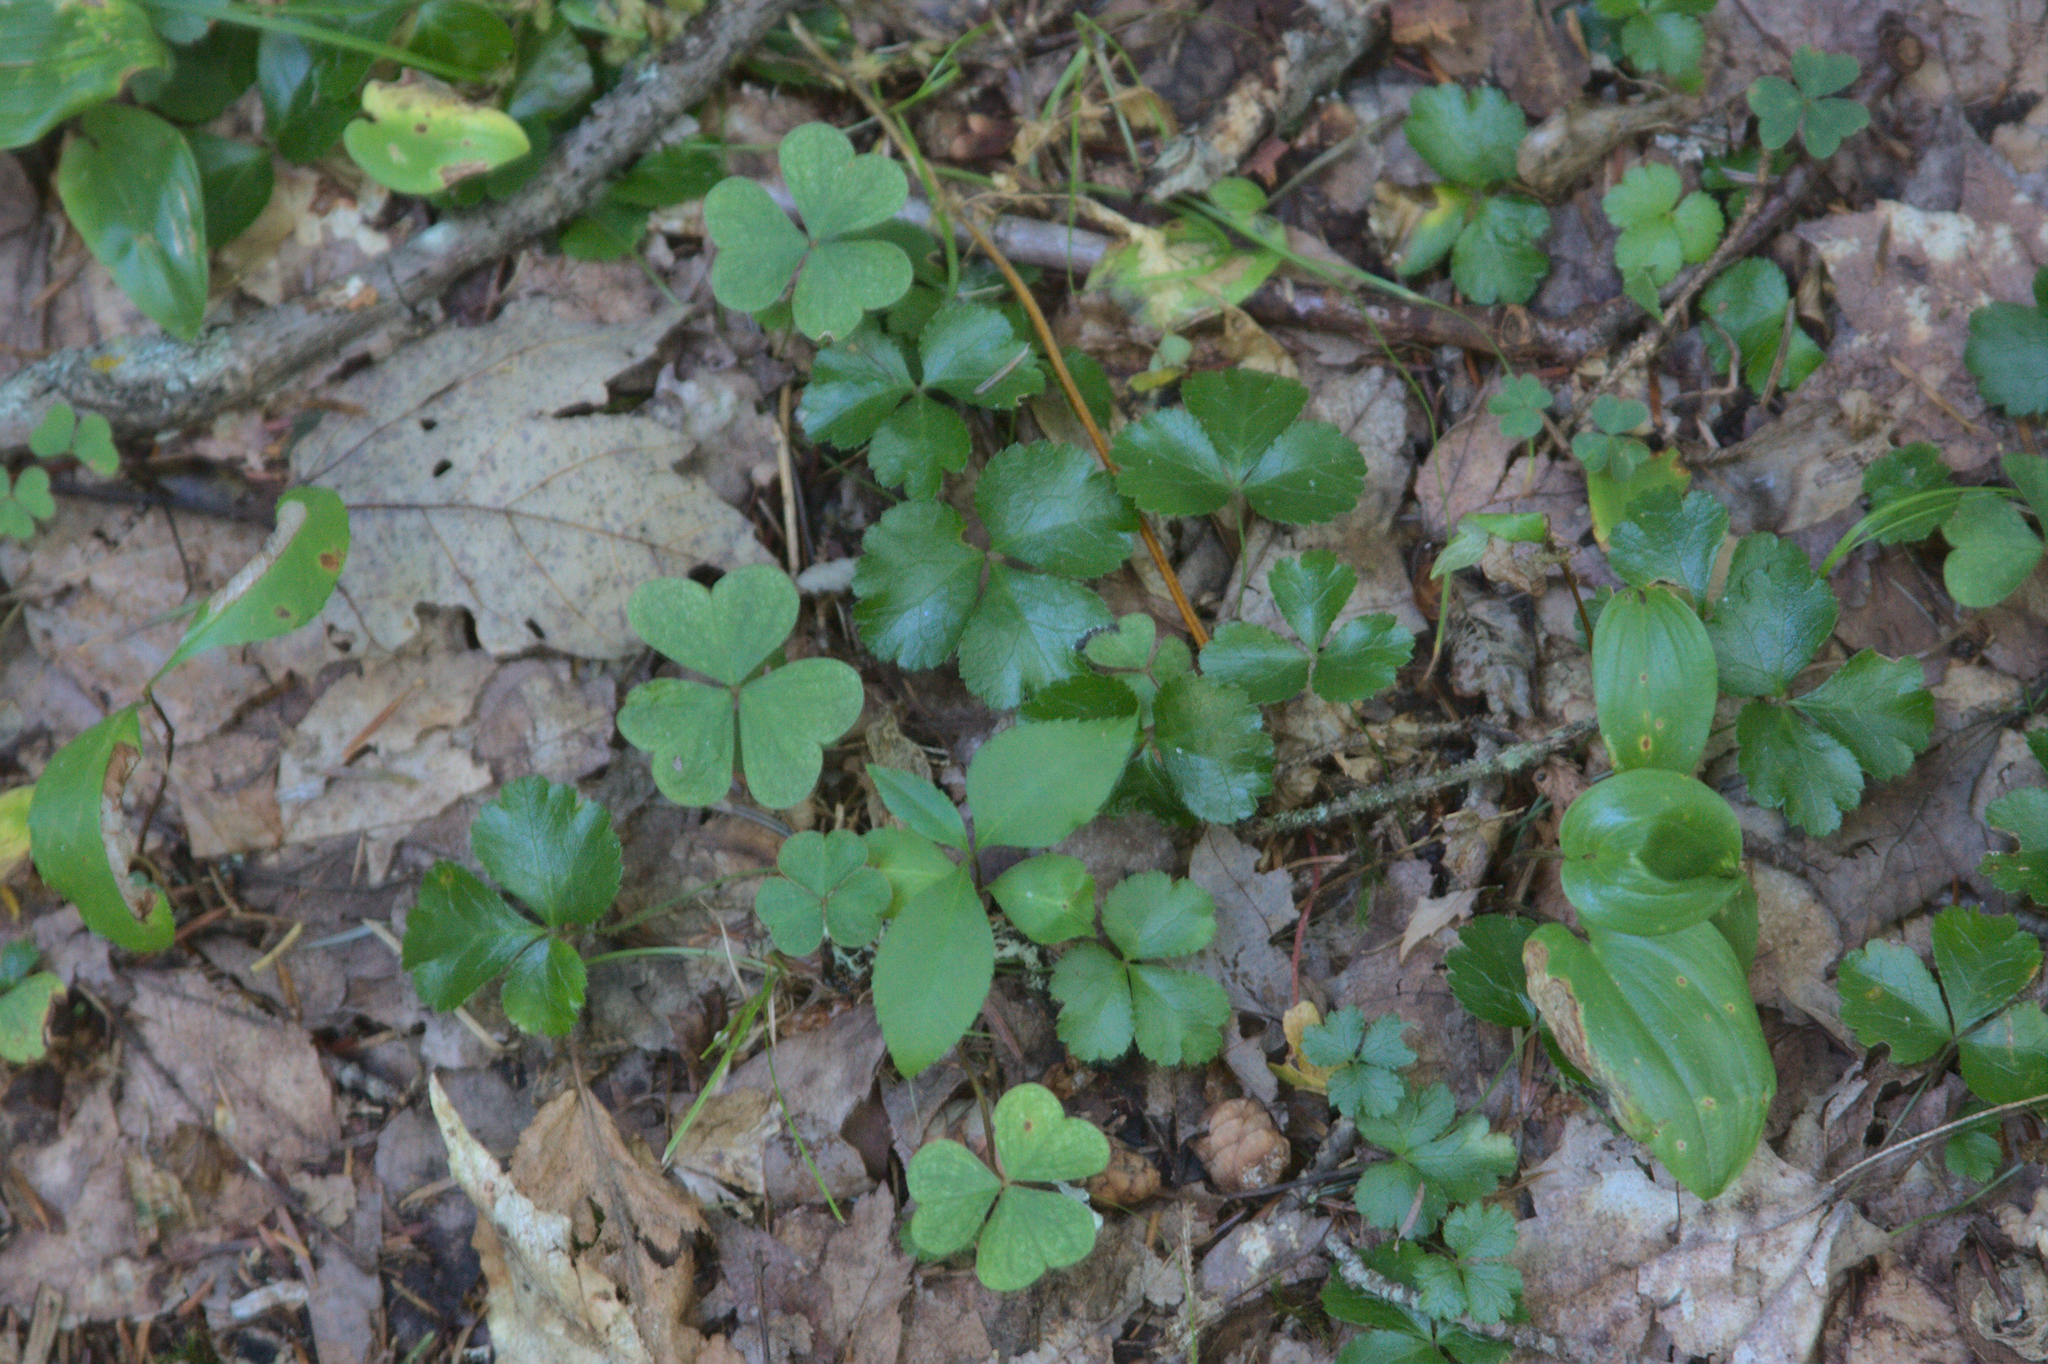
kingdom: Plantae
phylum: Tracheophyta
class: Liliopsida
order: Asparagales
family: Asparagaceae
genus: Maianthemum
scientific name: Maianthemum canadense
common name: False lily-of-the-valley
